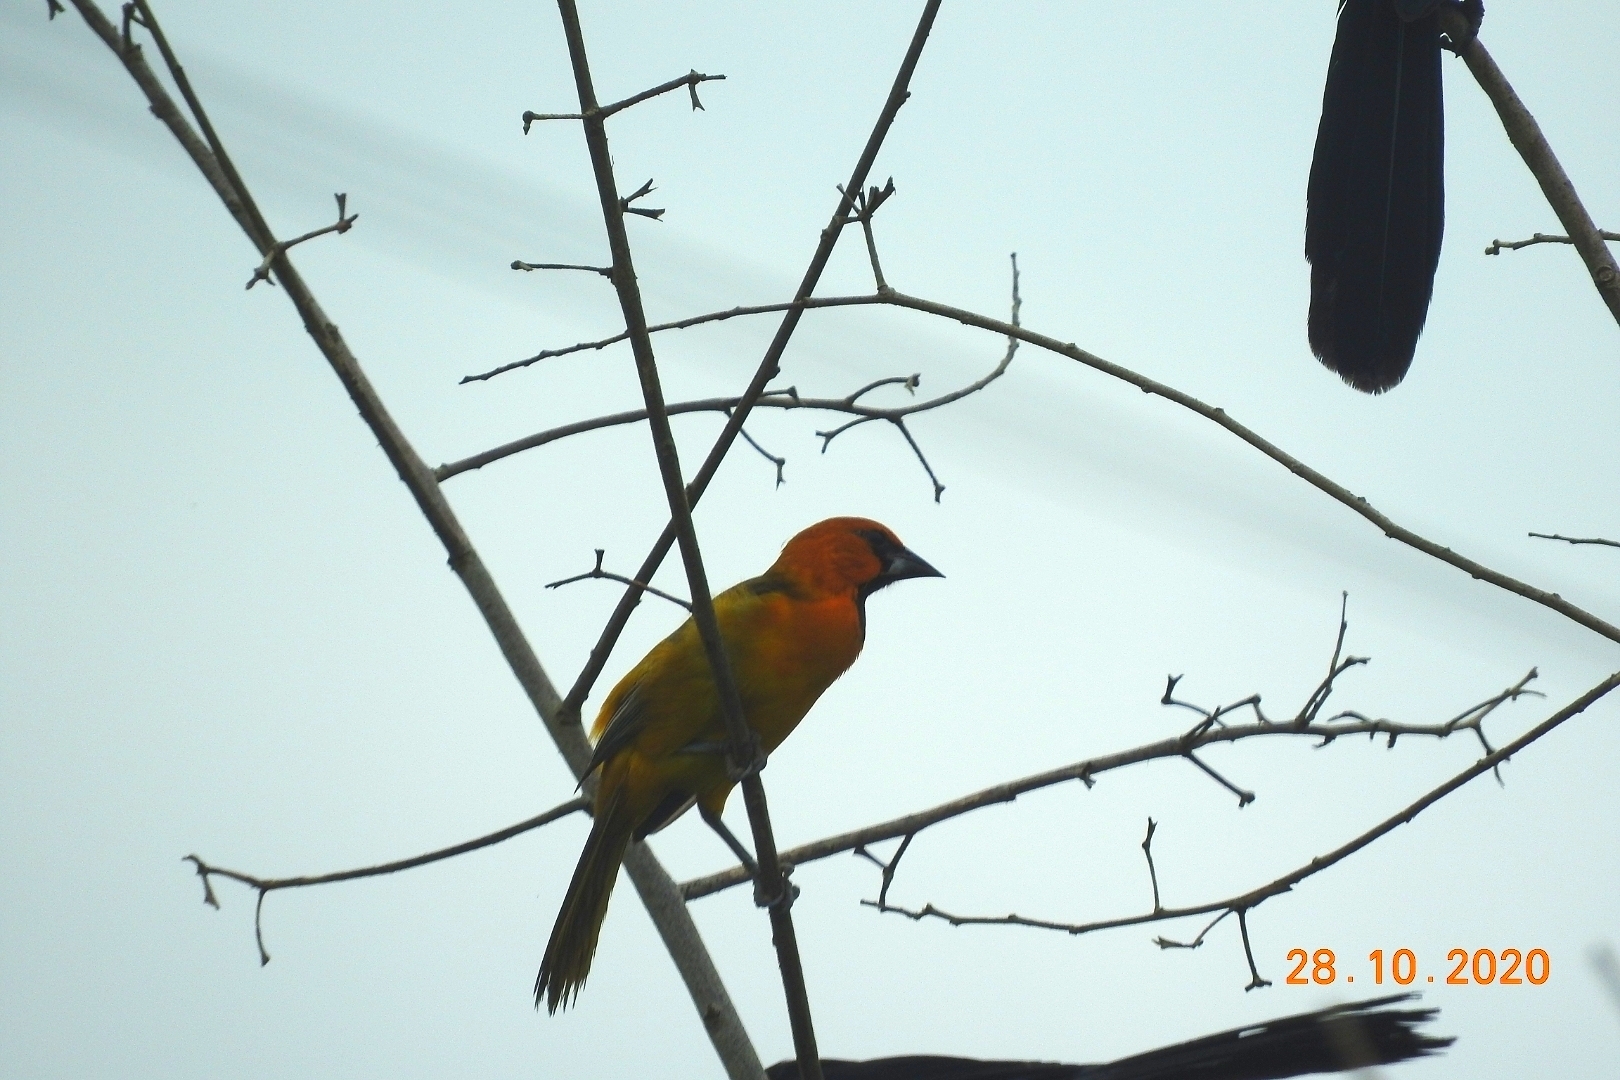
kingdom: Animalia
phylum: Chordata
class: Aves
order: Passeriformes
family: Icteridae
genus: Icterus
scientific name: Icterus gularis
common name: Altamira oriole
